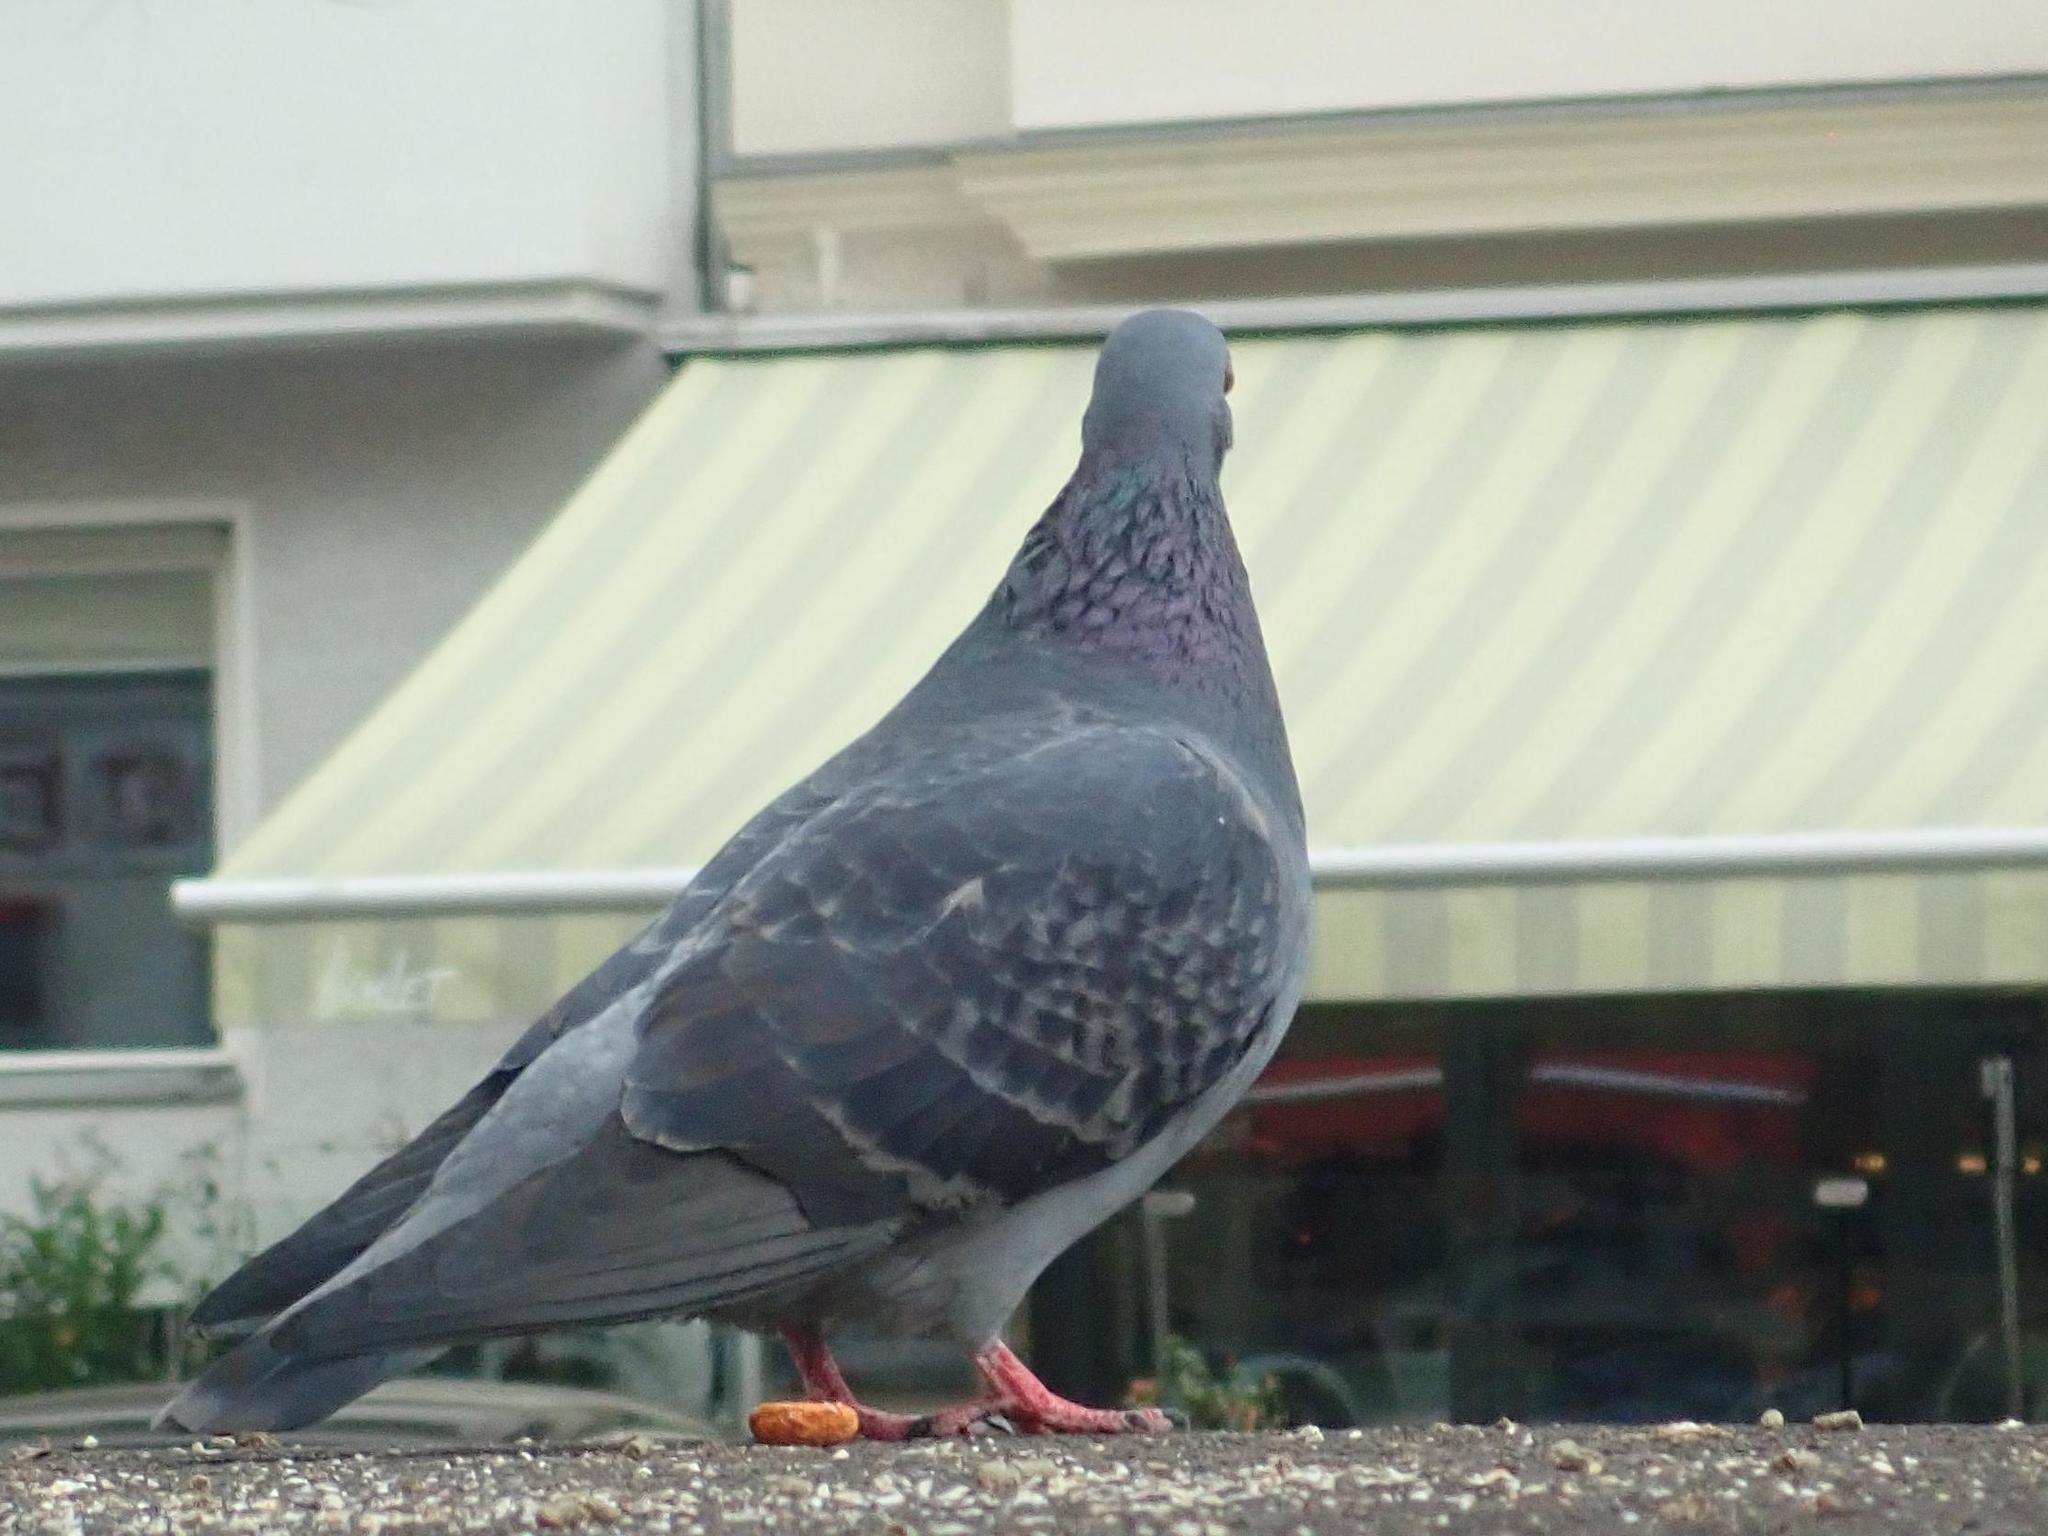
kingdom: Animalia
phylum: Chordata
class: Aves
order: Columbiformes
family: Columbidae
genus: Columba
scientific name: Columba livia
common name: Rock pigeon
